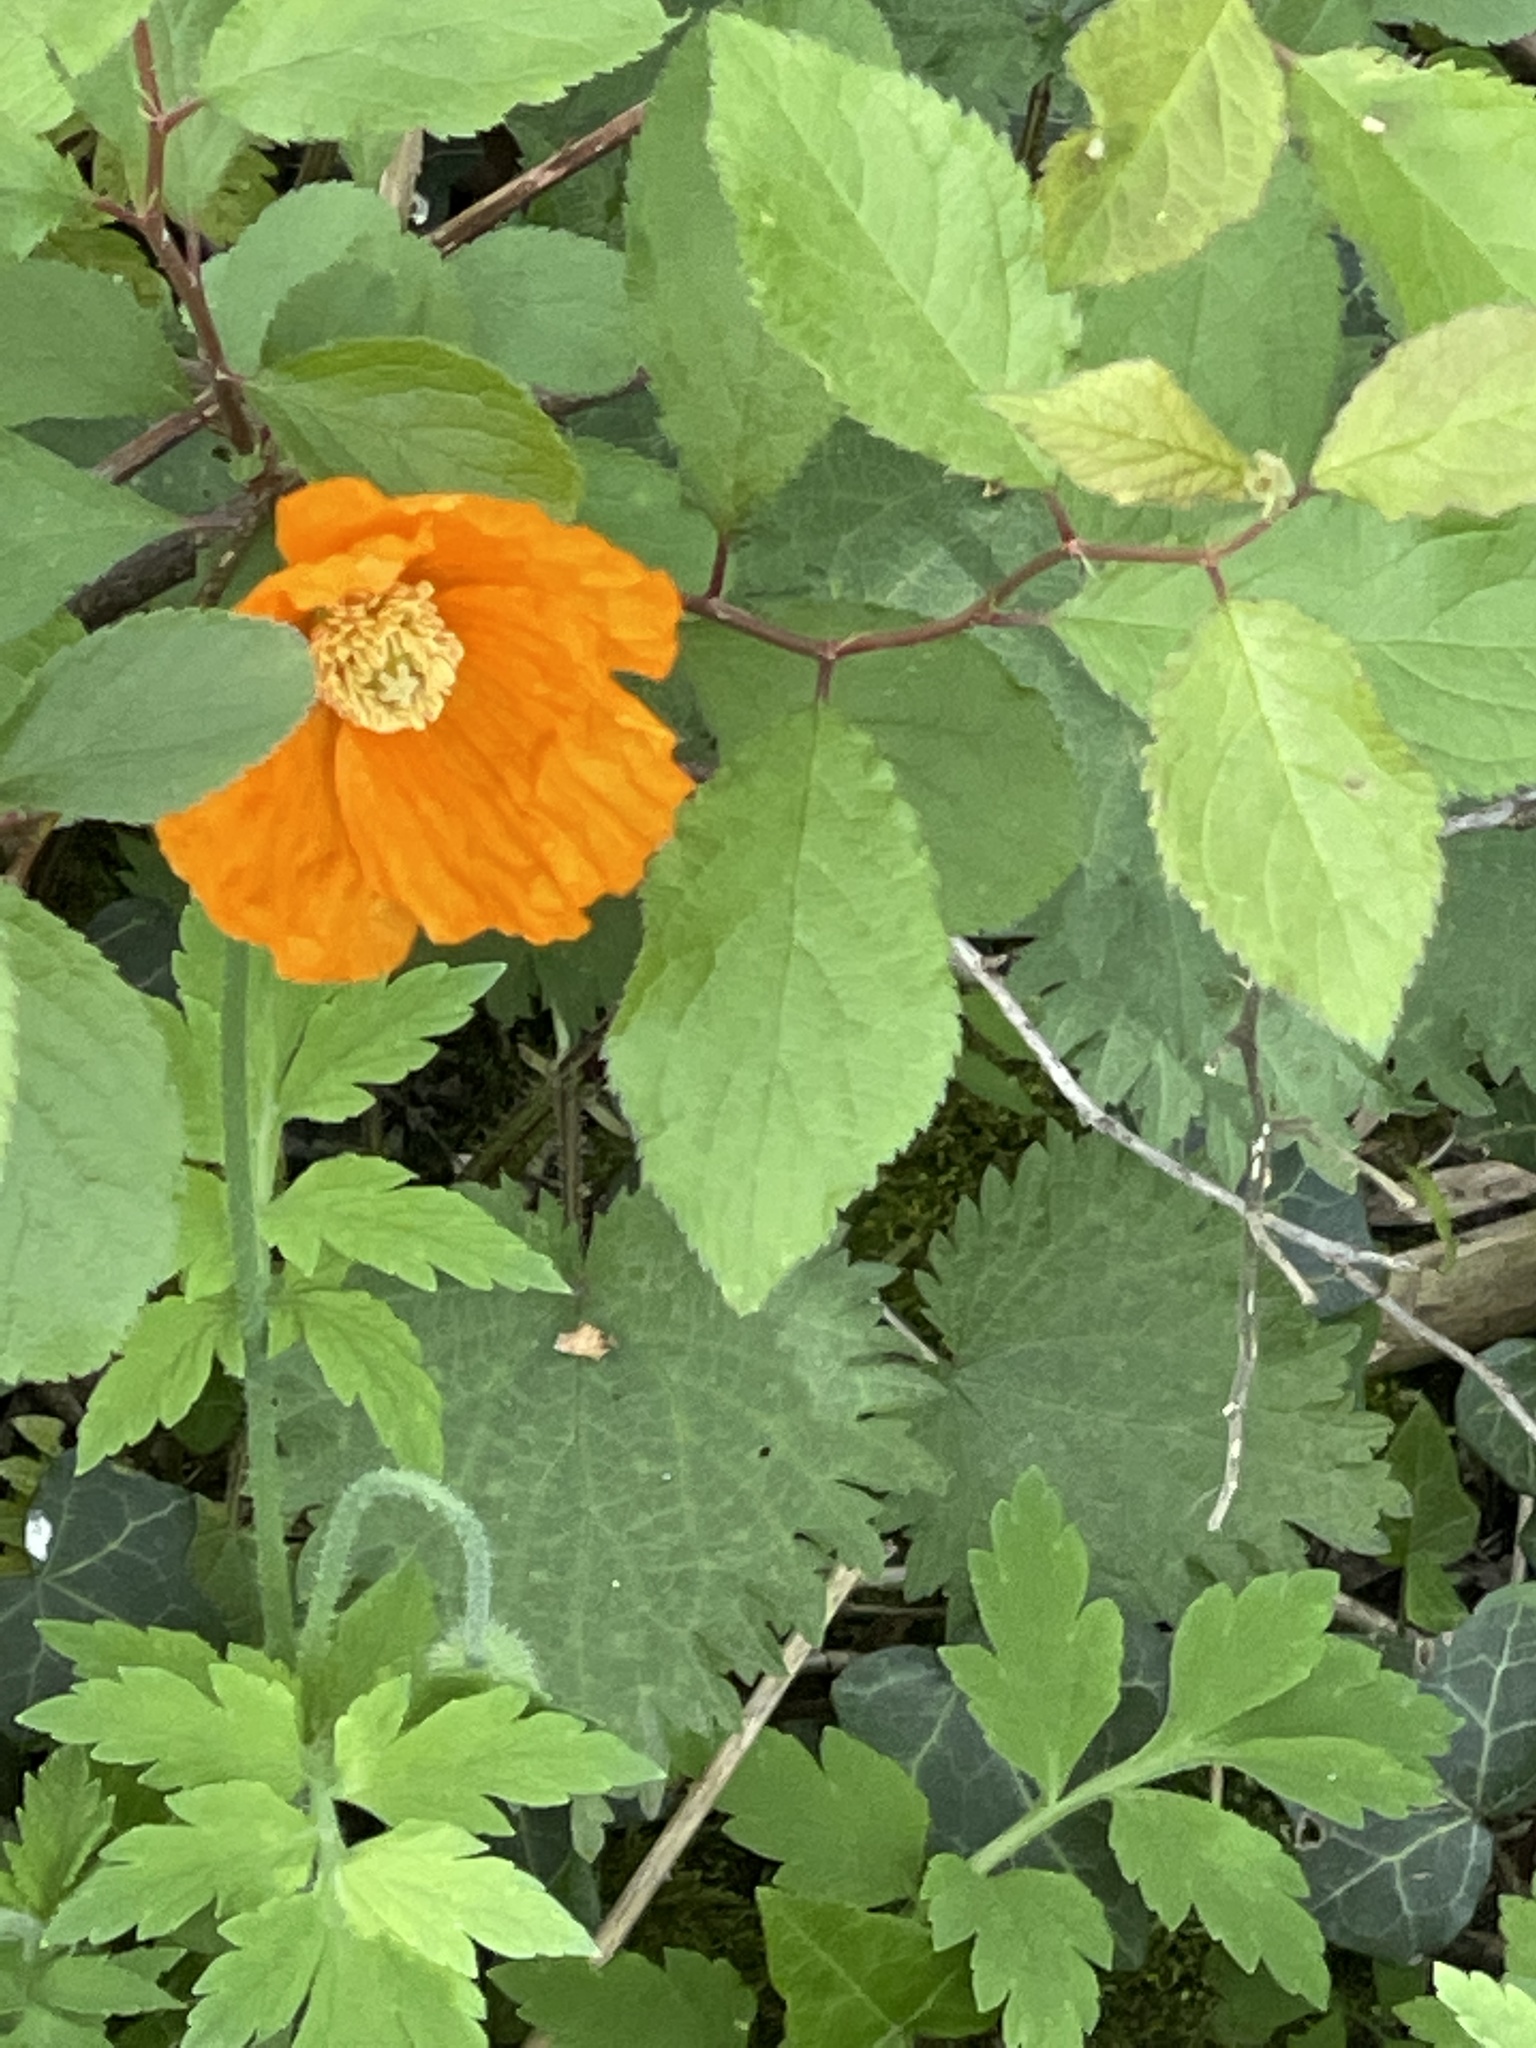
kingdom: Plantae
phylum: Tracheophyta
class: Magnoliopsida
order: Ranunculales
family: Papaveraceae
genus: Papaver
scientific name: Papaver cambricum
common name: Poppy
